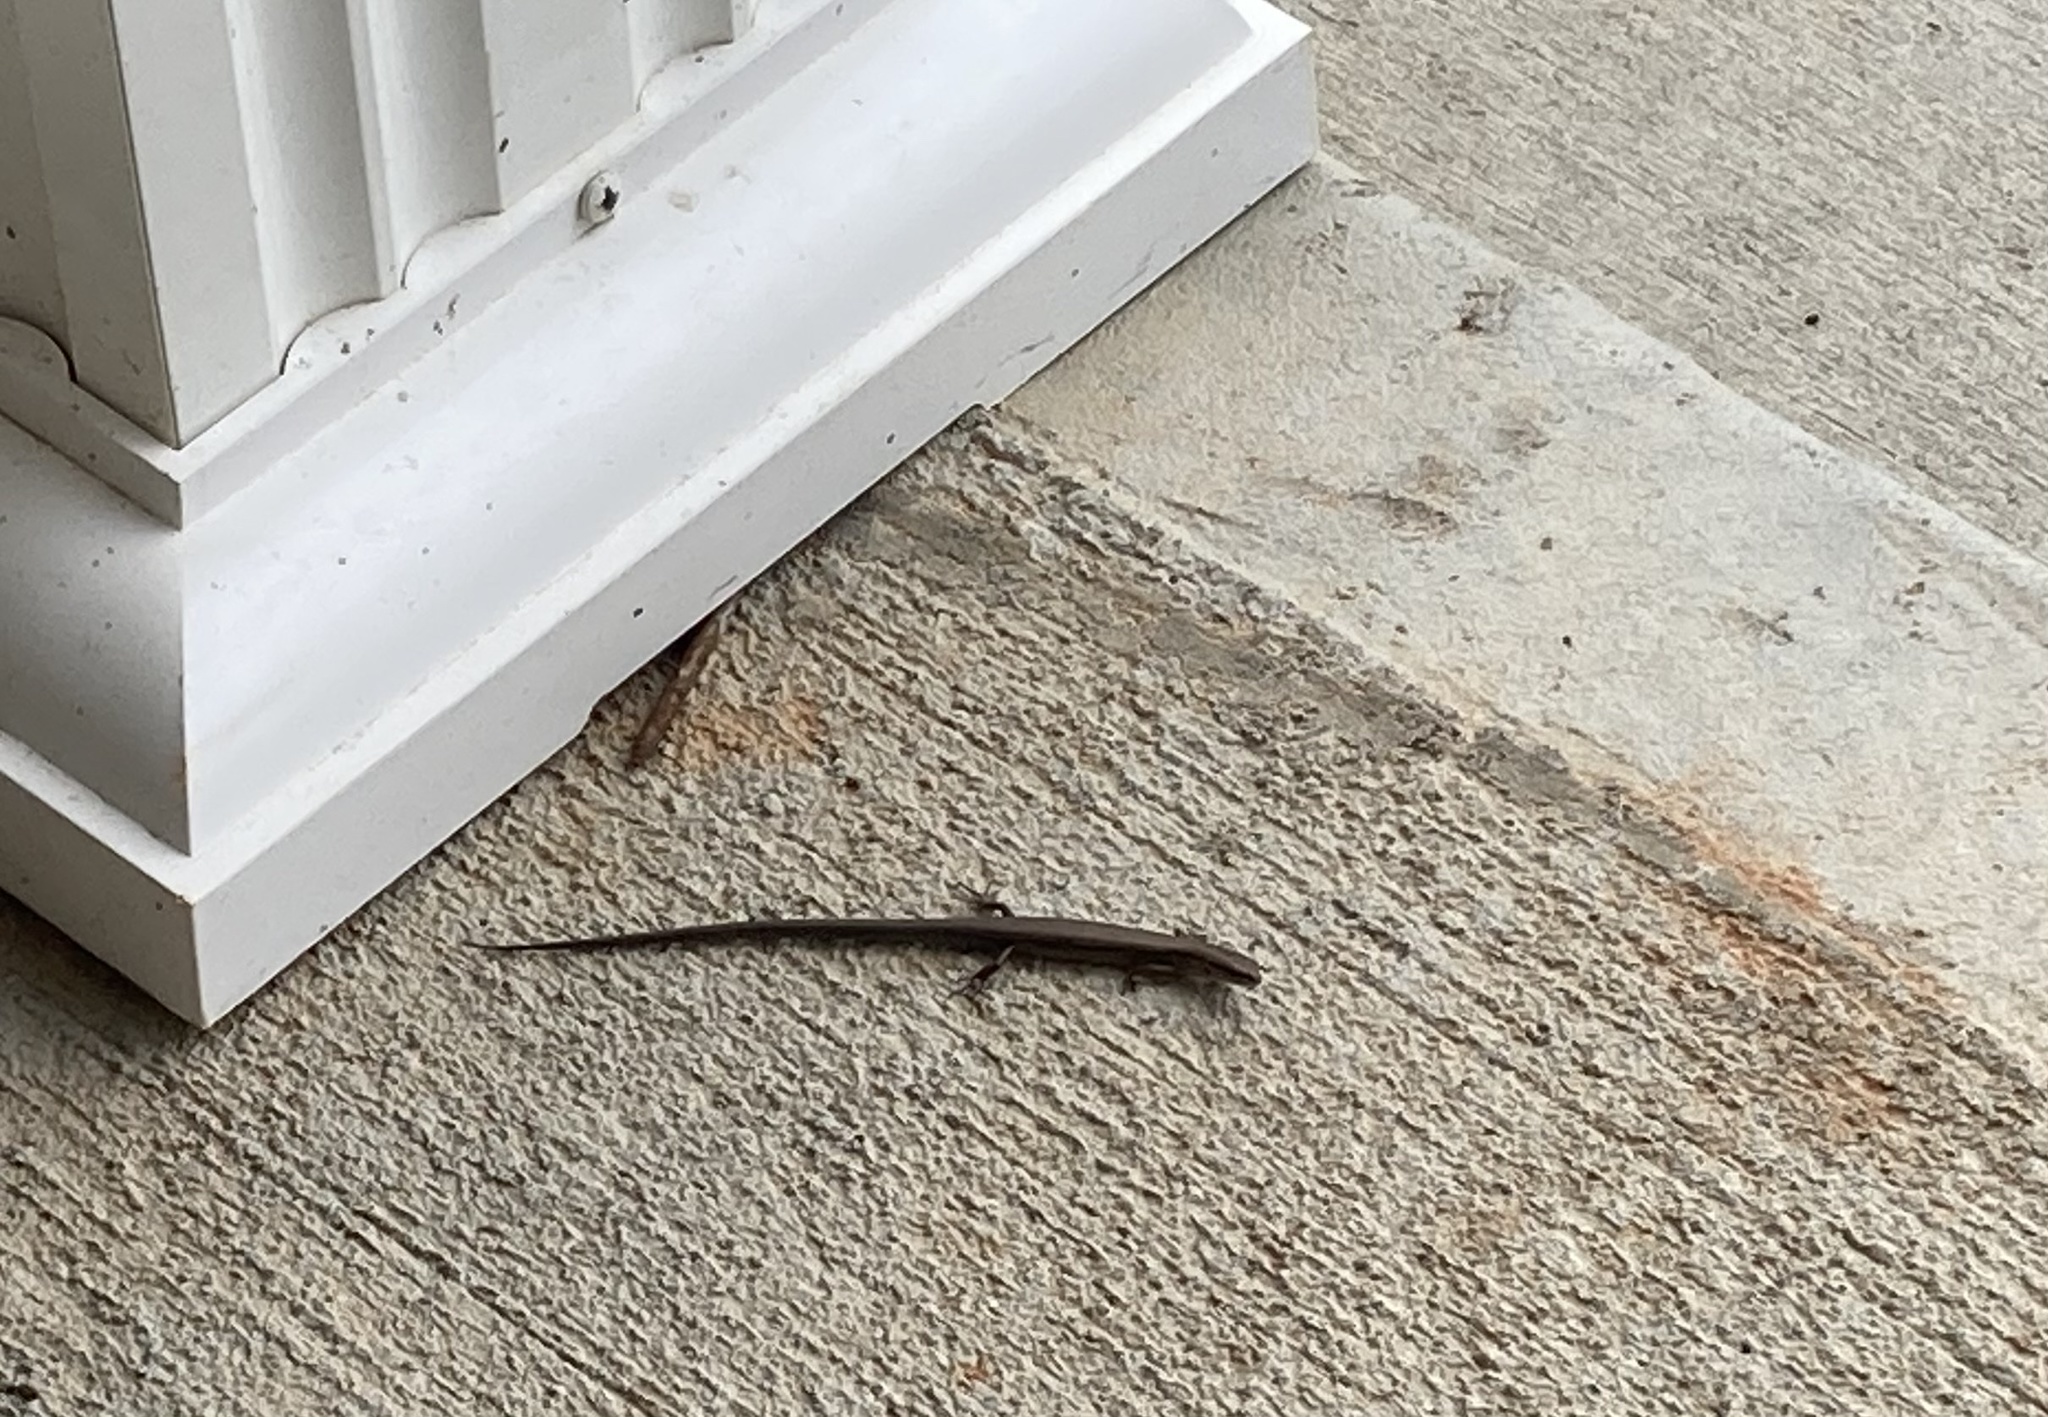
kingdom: Animalia
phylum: Chordata
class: Squamata
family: Scincidae
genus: Scincella
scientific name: Scincella lateralis
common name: Ground skink
